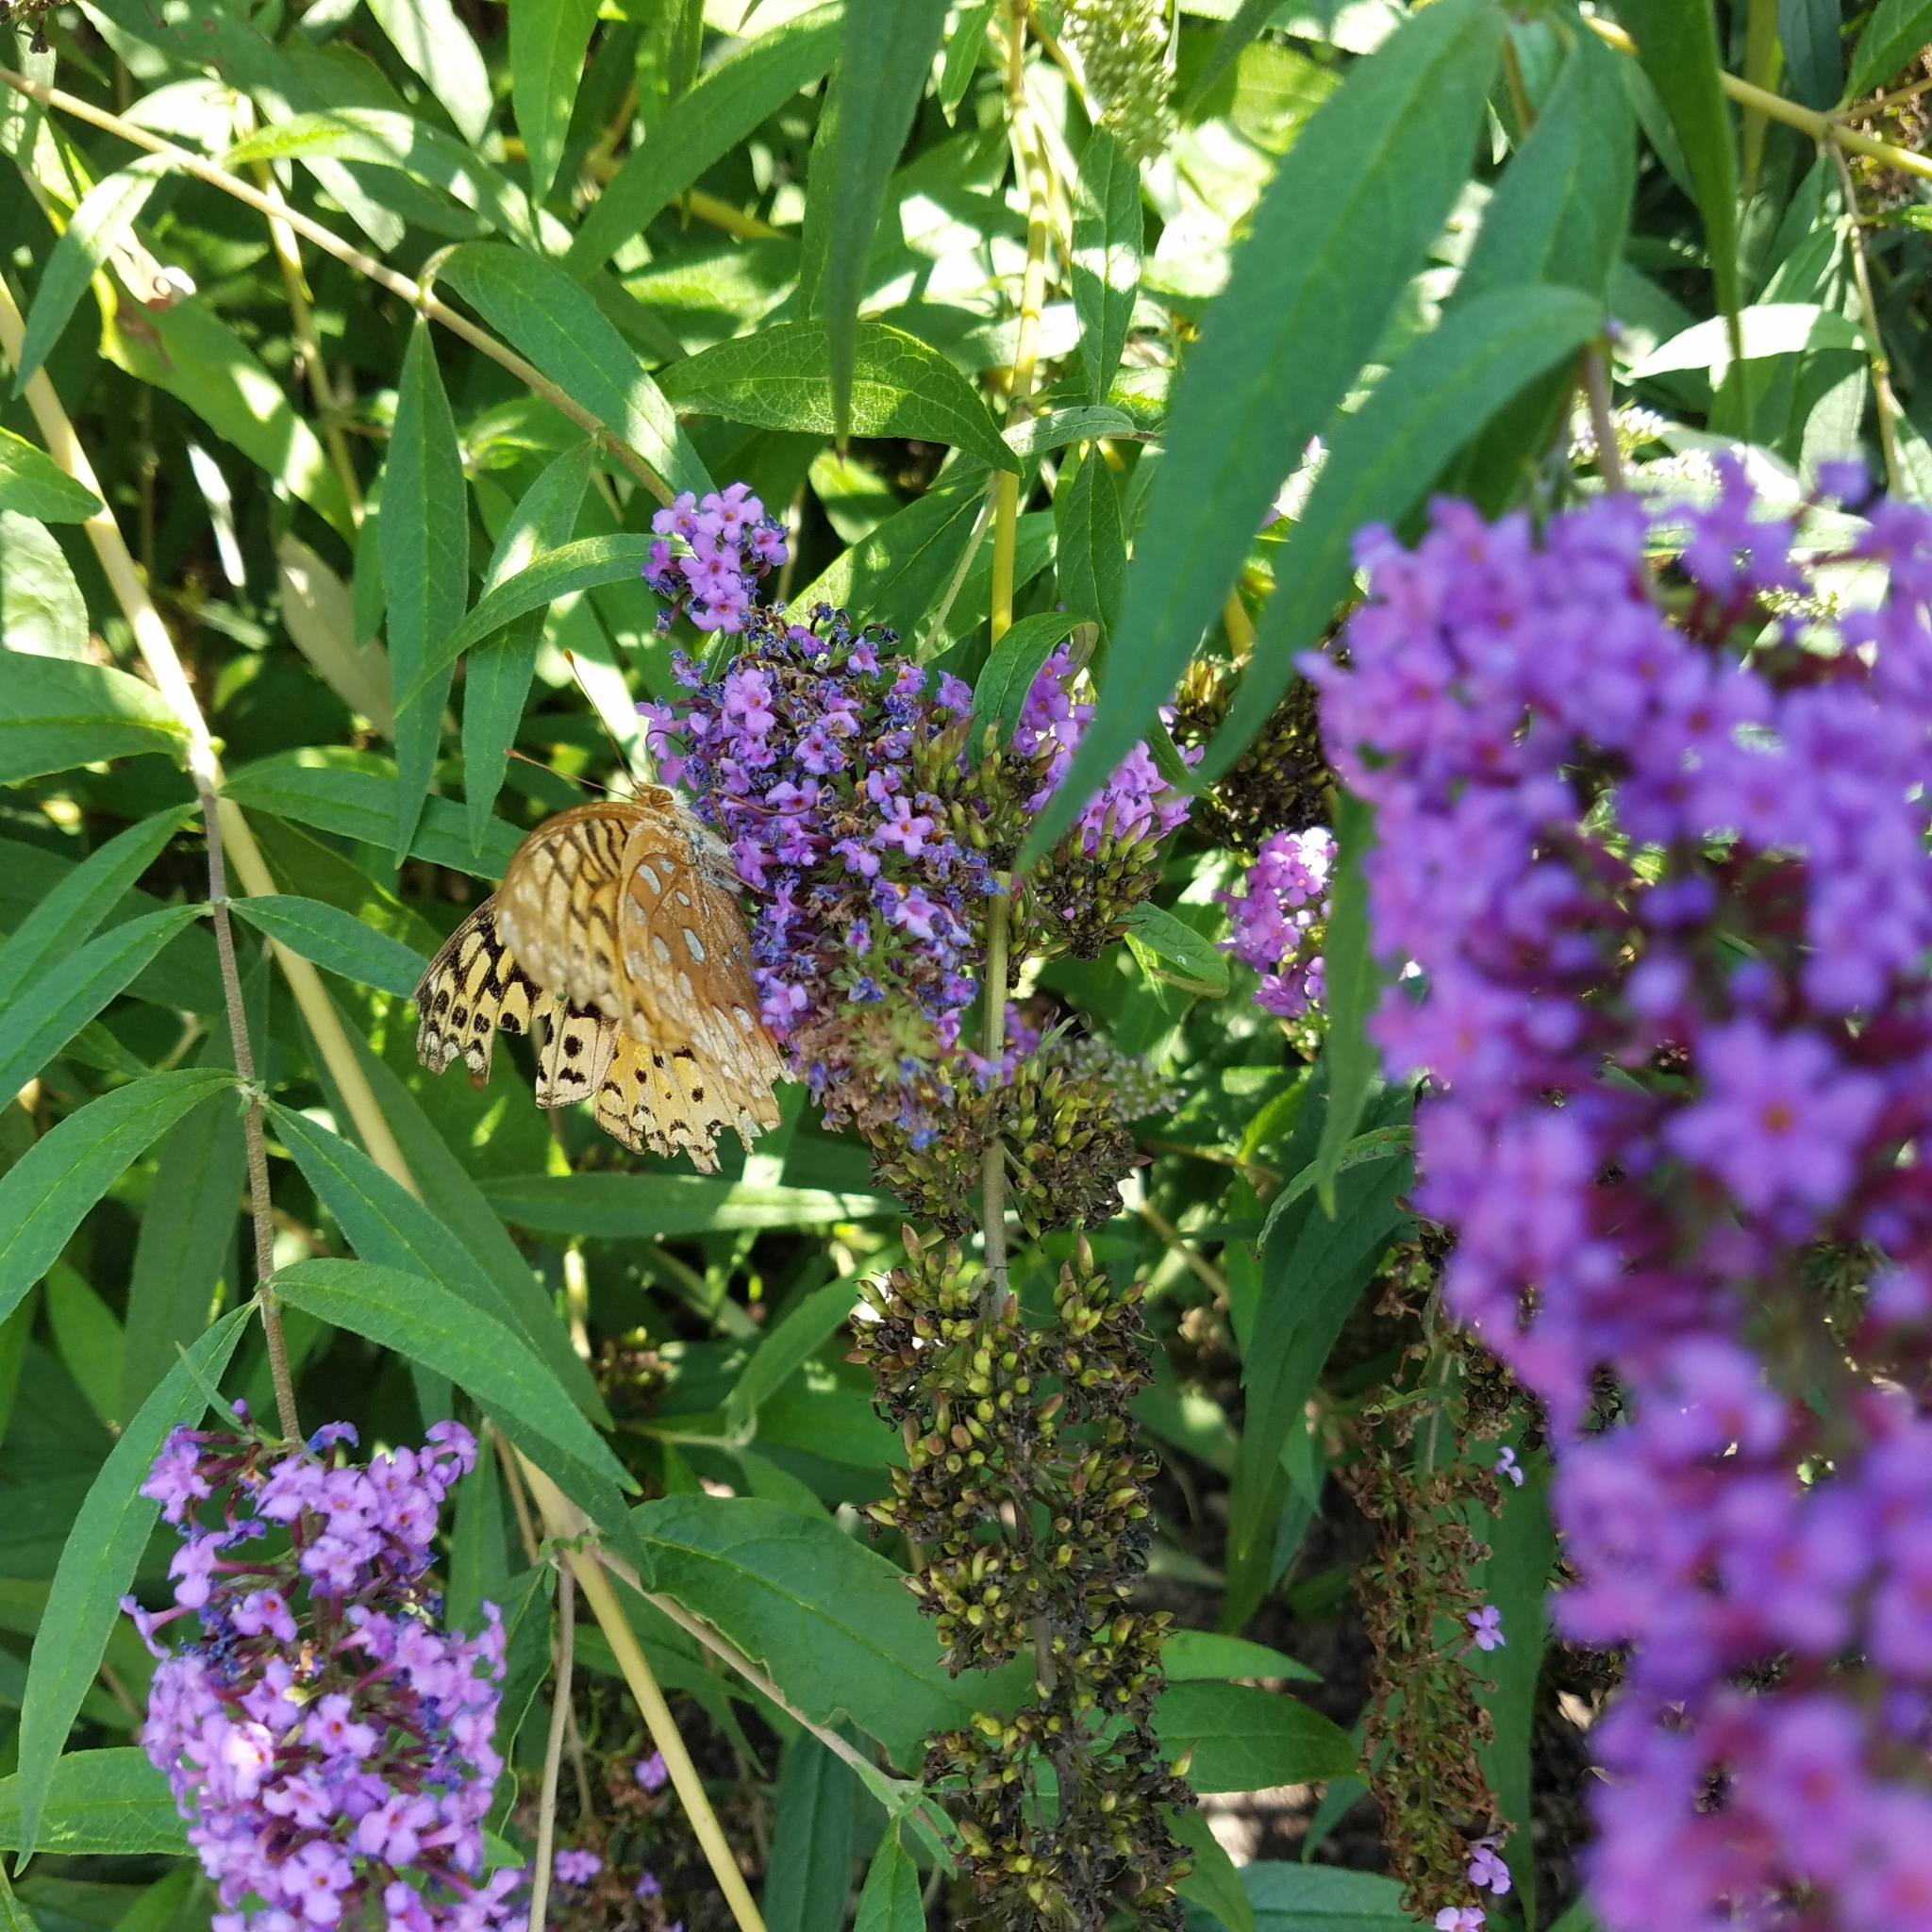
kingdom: Animalia
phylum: Arthropoda
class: Insecta
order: Lepidoptera
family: Nymphalidae
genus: Speyeria
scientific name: Speyeria cybele
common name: Great spangled fritillary
